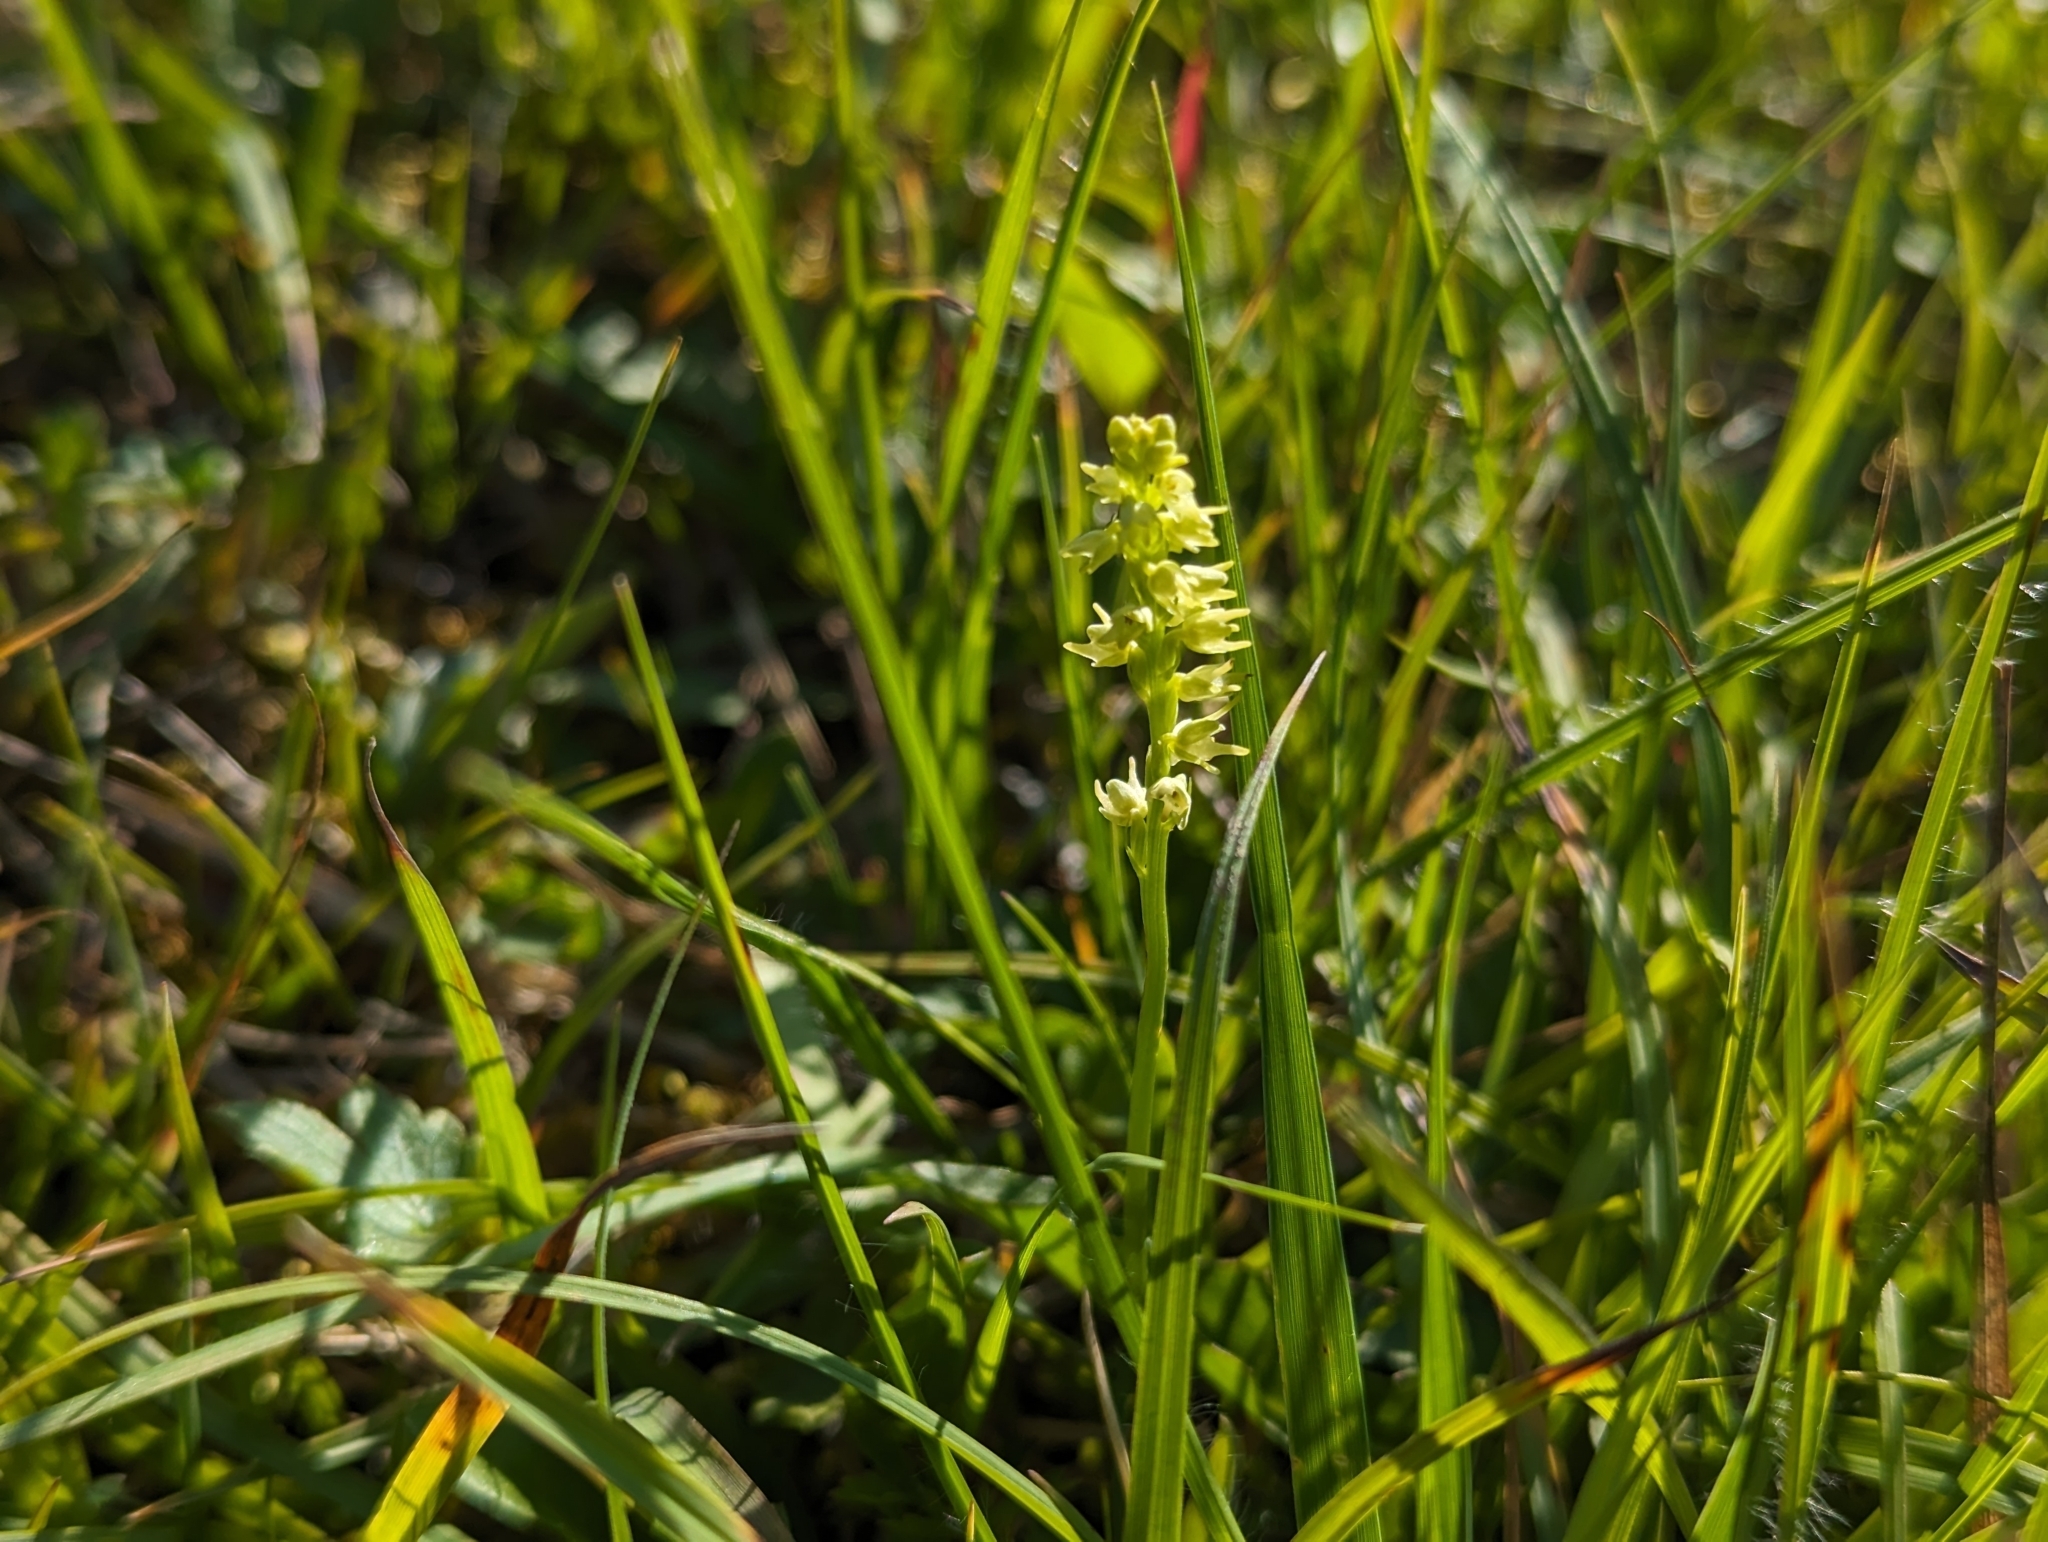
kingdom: Plantae
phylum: Tracheophyta
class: Liliopsida
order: Asparagales
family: Orchidaceae
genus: Herminium
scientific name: Herminium monorchis
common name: Musk orchid
